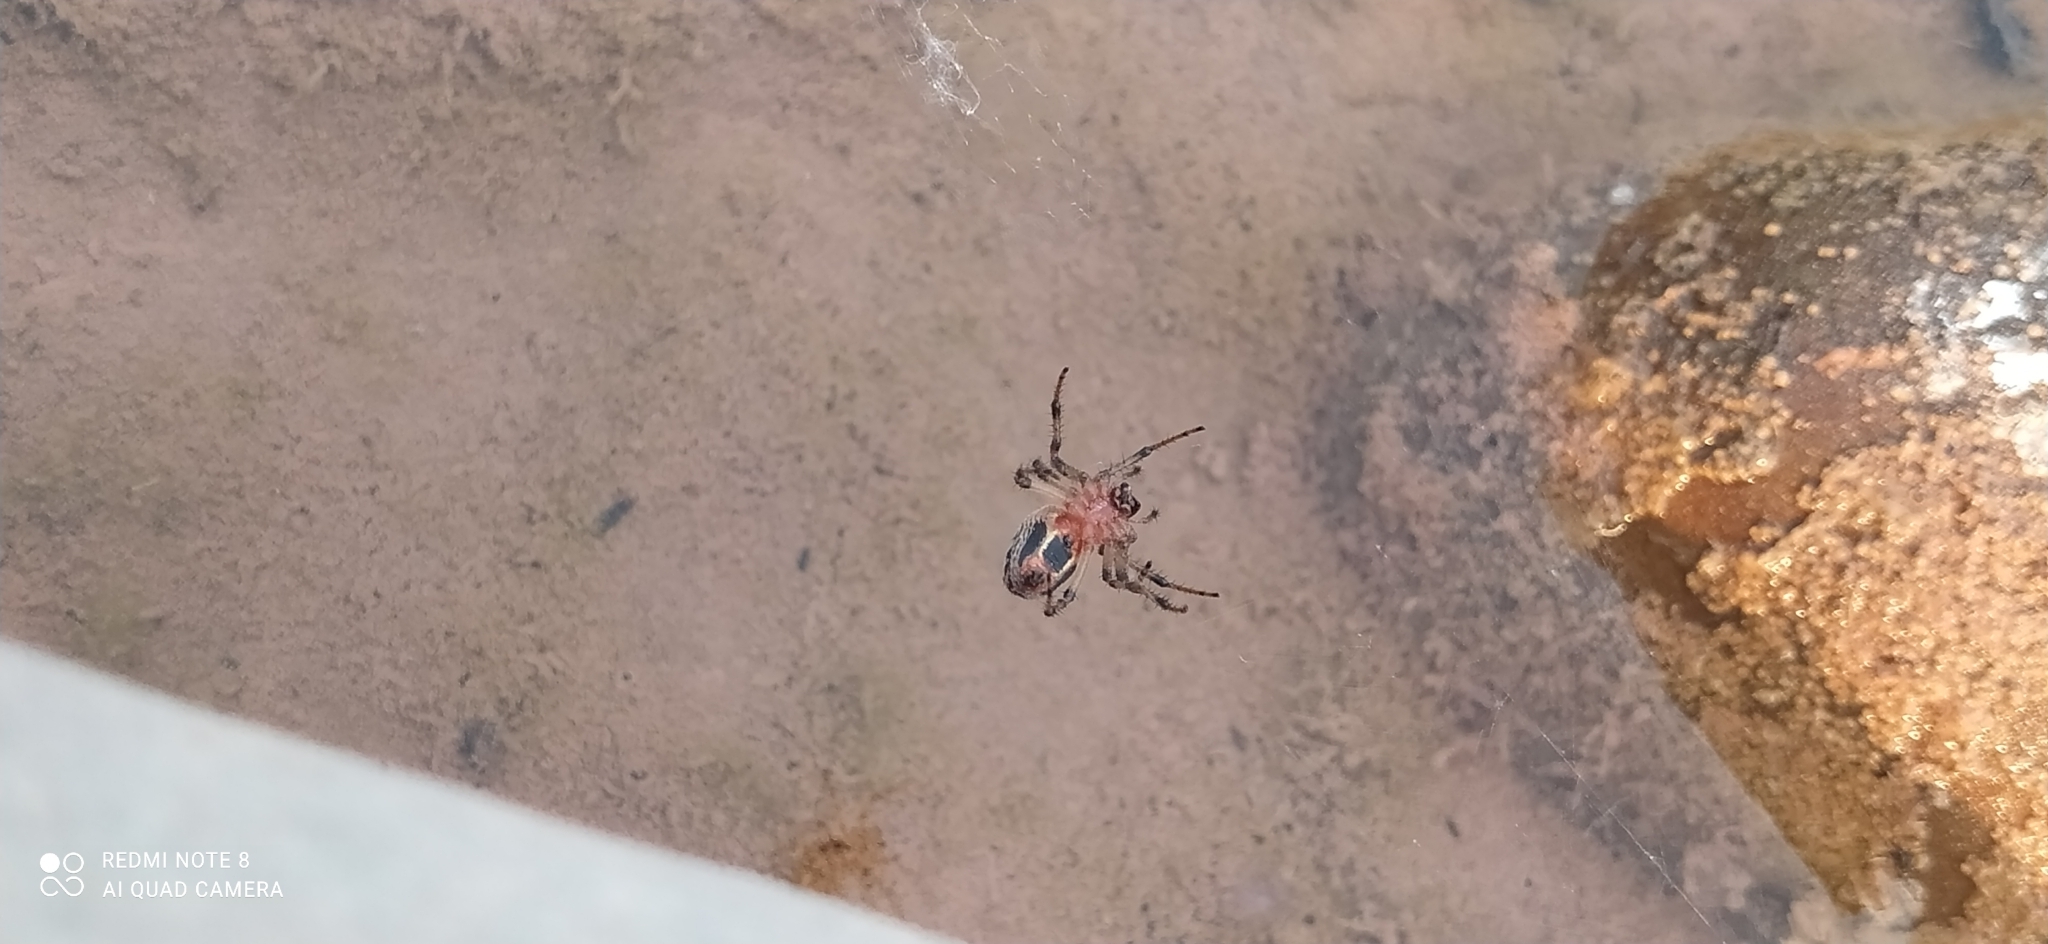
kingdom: Animalia
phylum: Arthropoda
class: Arachnida
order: Araneae
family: Araneidae
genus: Alpaida
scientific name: Alpaida veniliae
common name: Orb weavers
